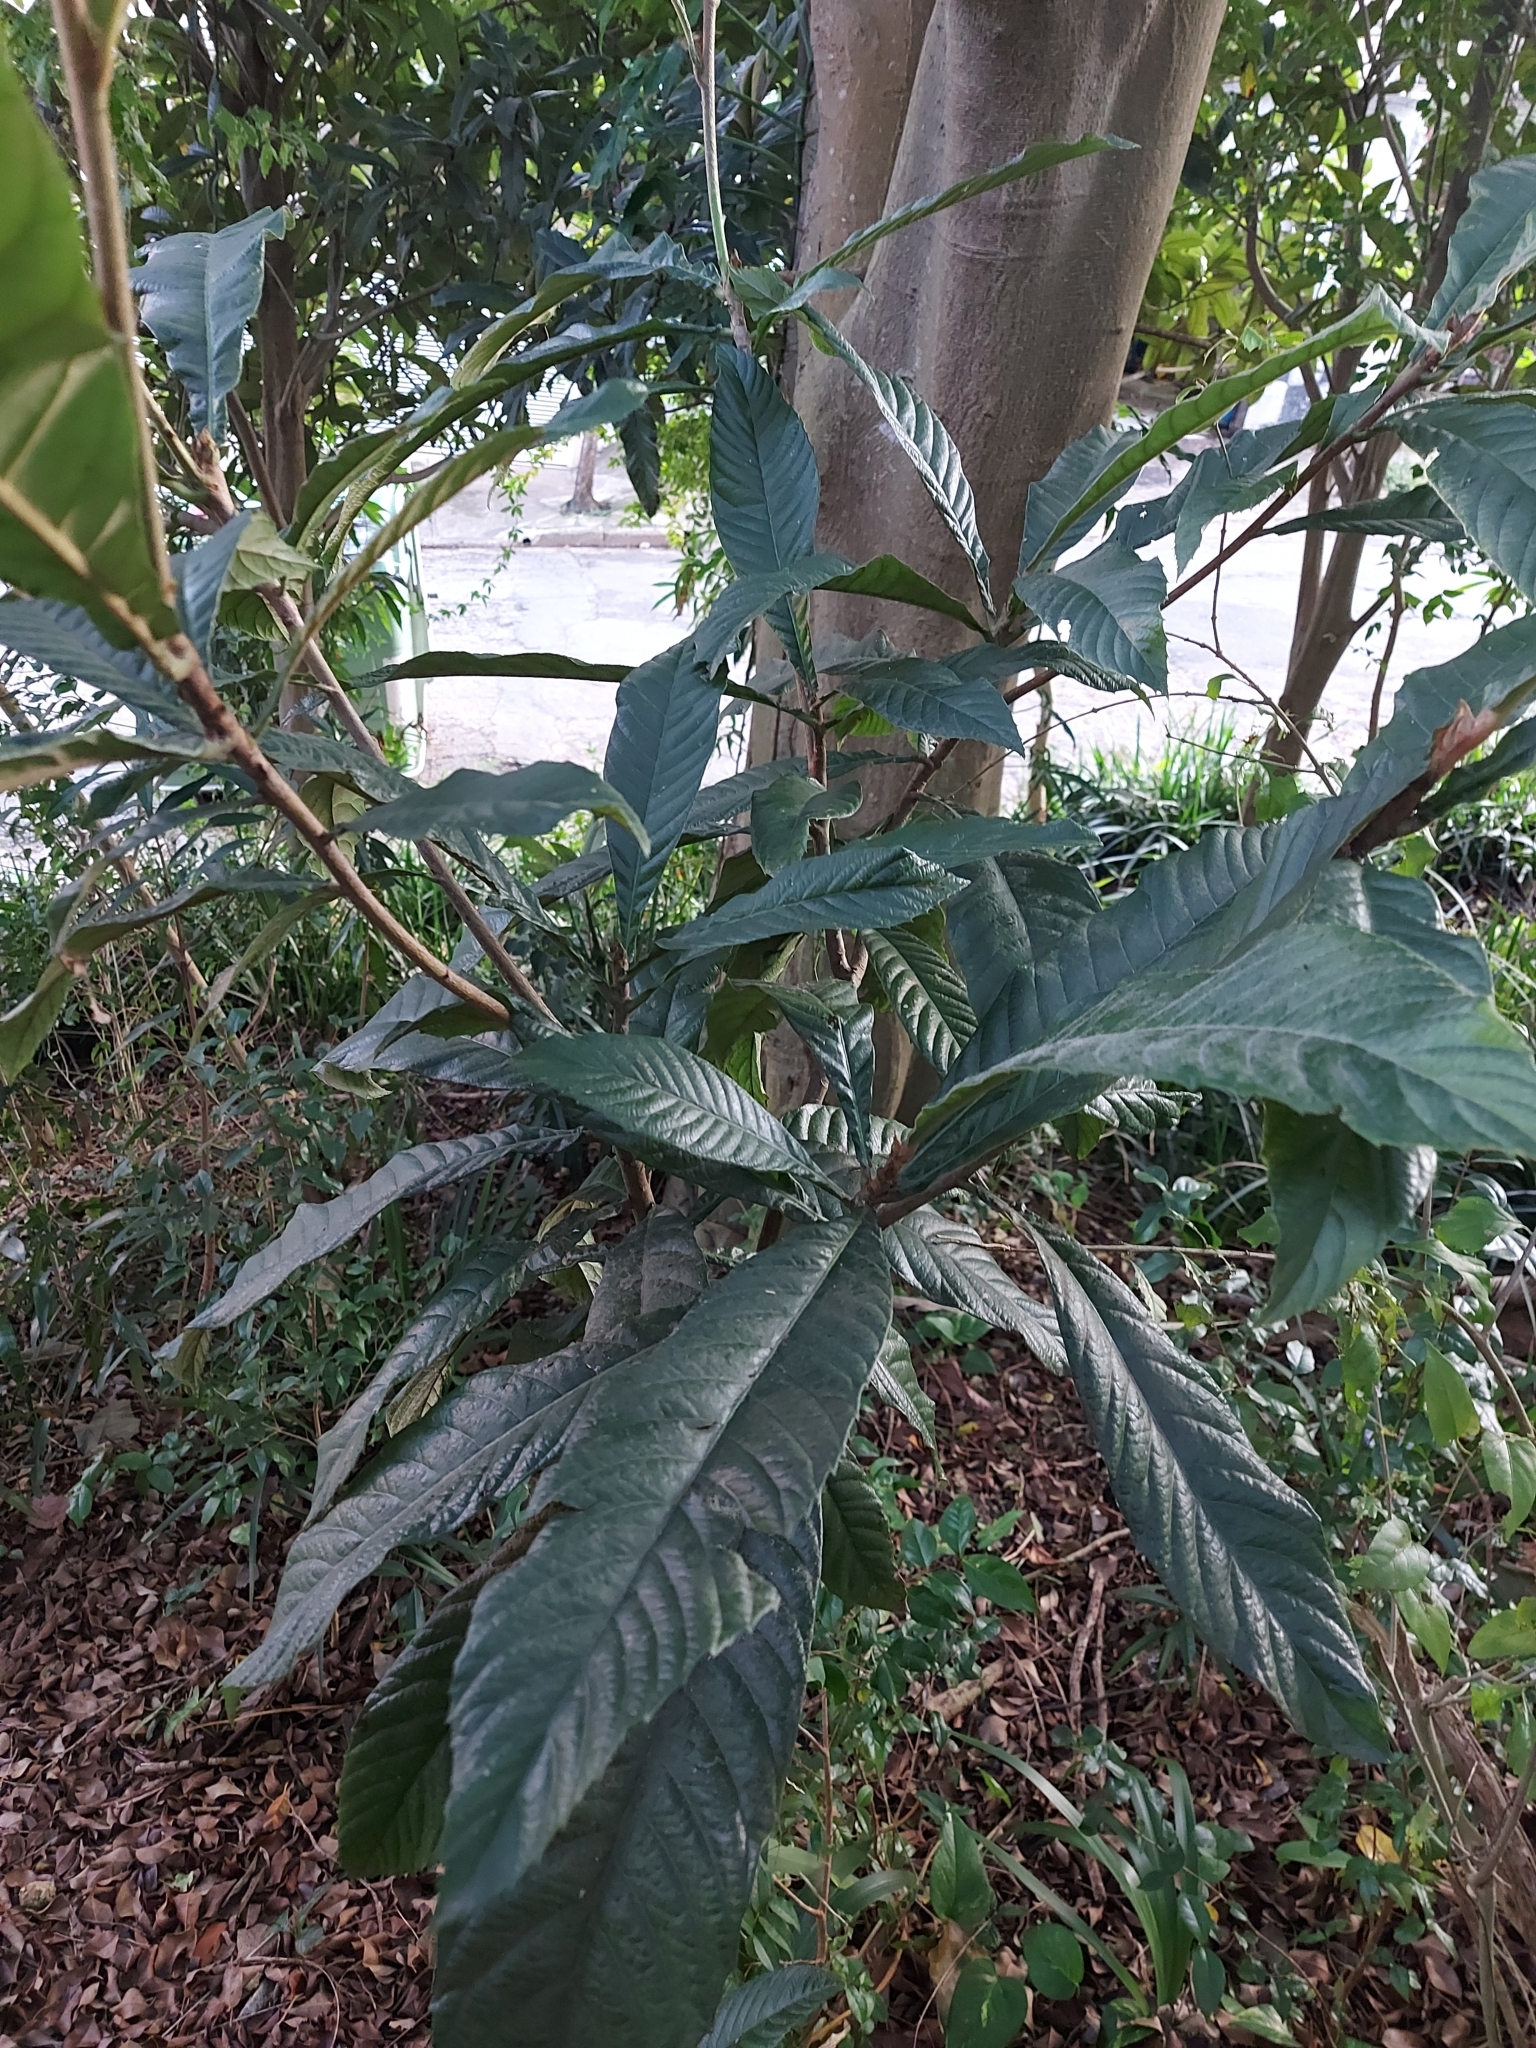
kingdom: Plantae
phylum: Tracheophyta
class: Magnoliopsida
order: Rosales
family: Rosaceae
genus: Rhaphiolepis
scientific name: Rhaphiolepis bibas
